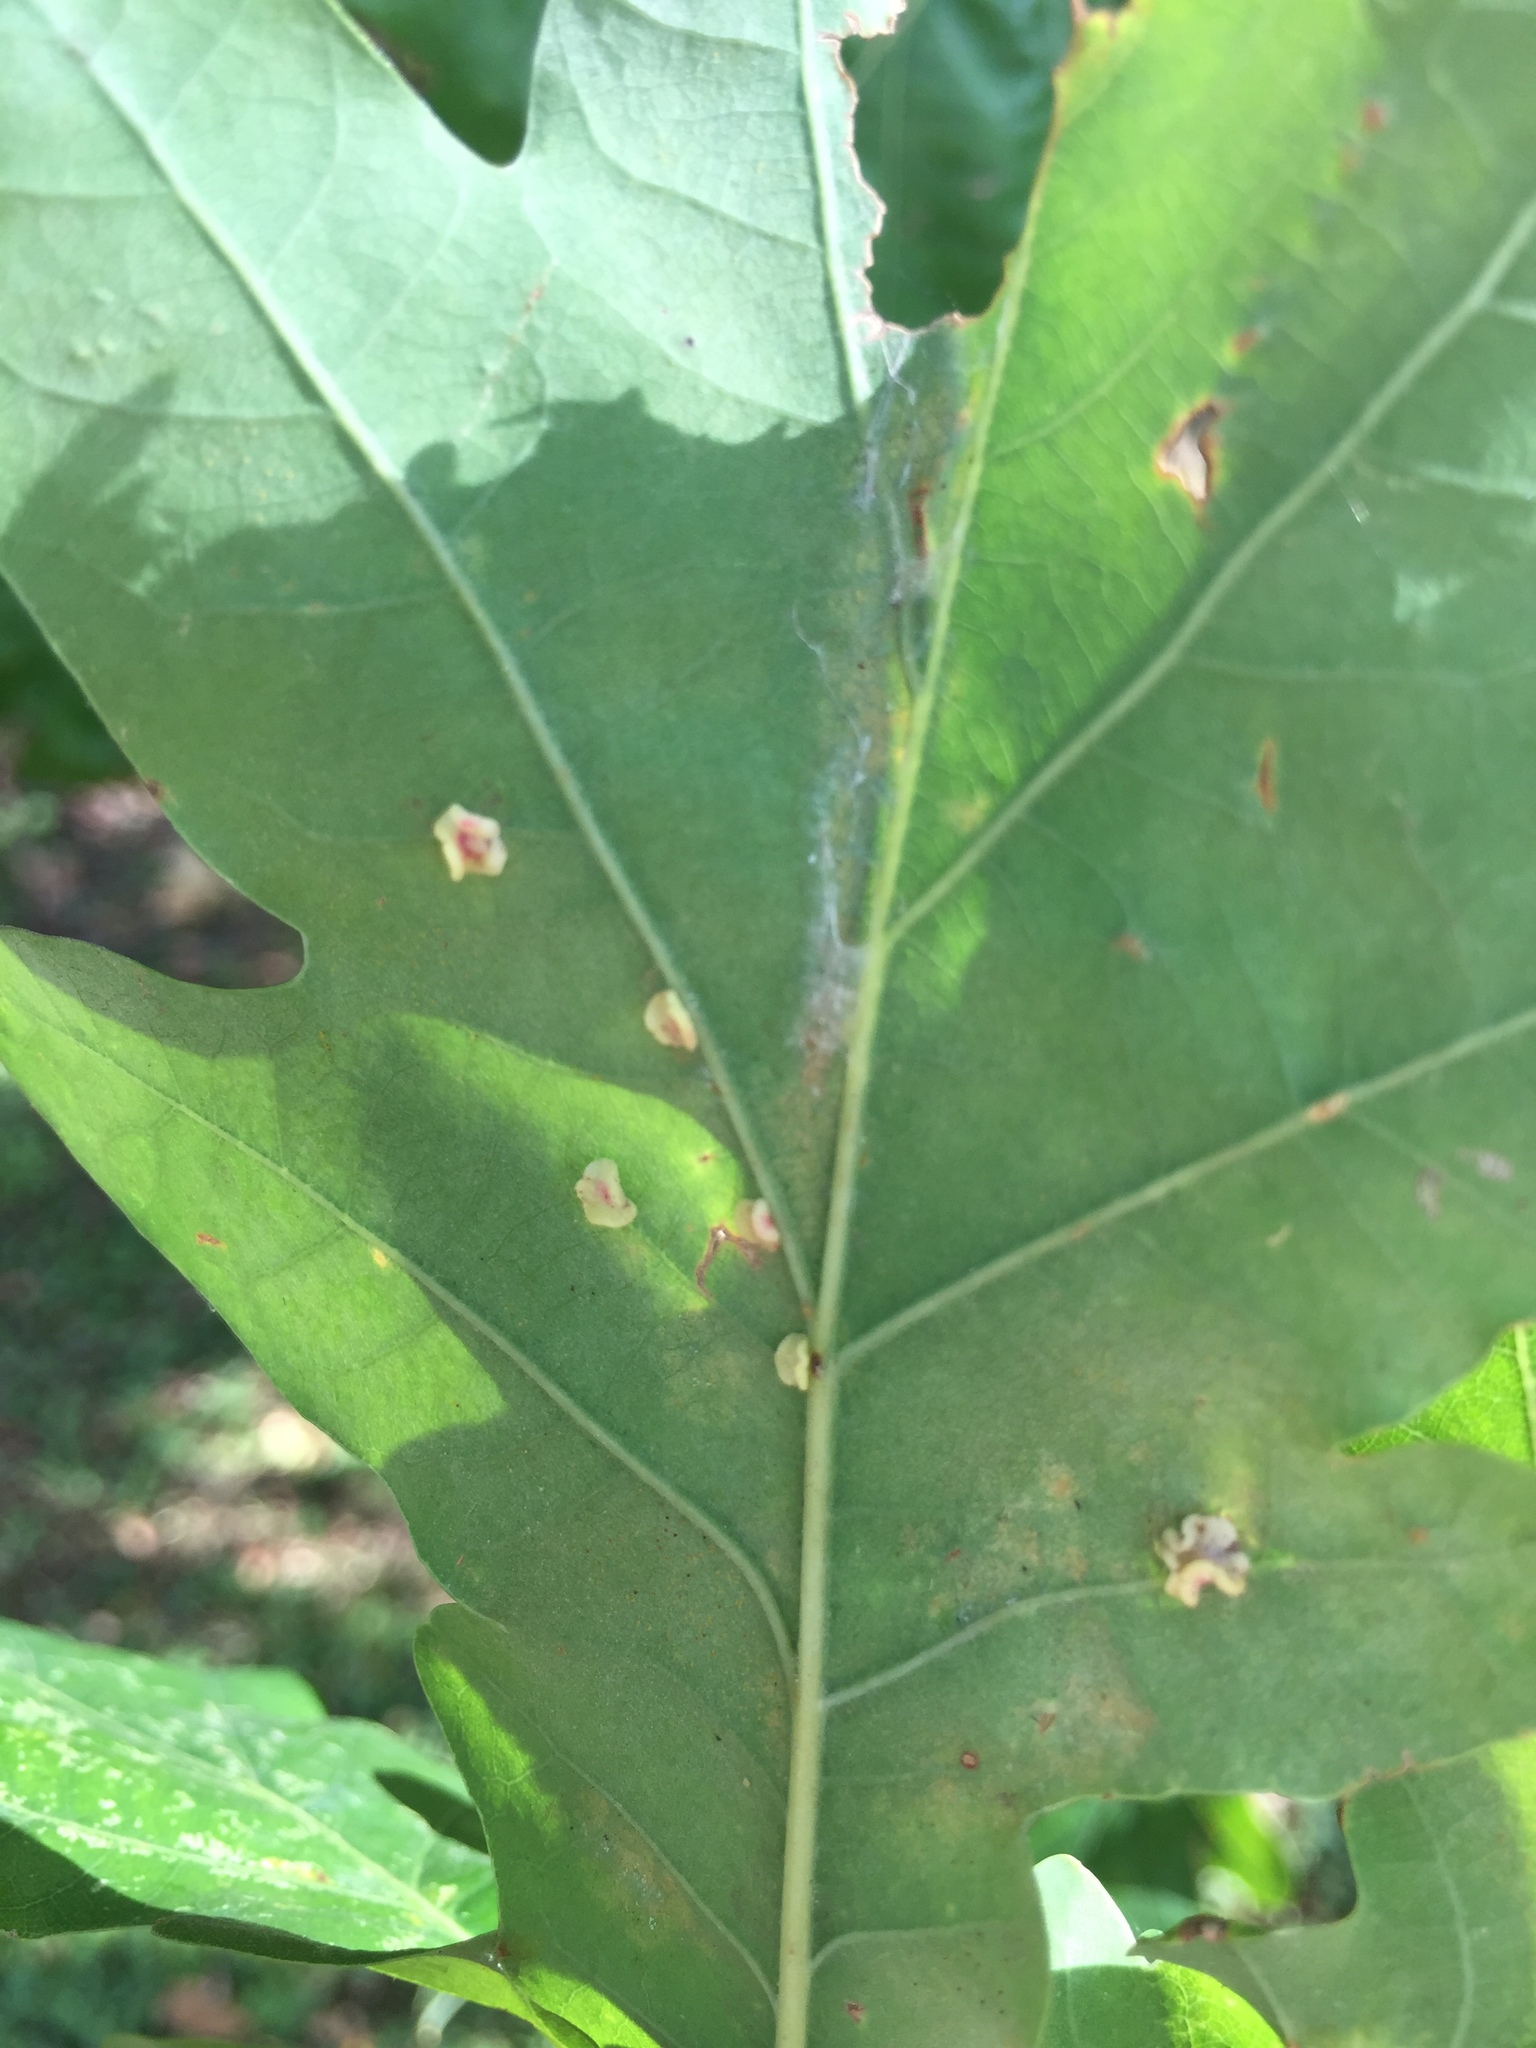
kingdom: Animalia
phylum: Arthropoda
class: Insecta
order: Hymenoptera
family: Cynipidae
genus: Neuroterus
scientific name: Neuroterus albipes
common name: Smooth spangle gall
